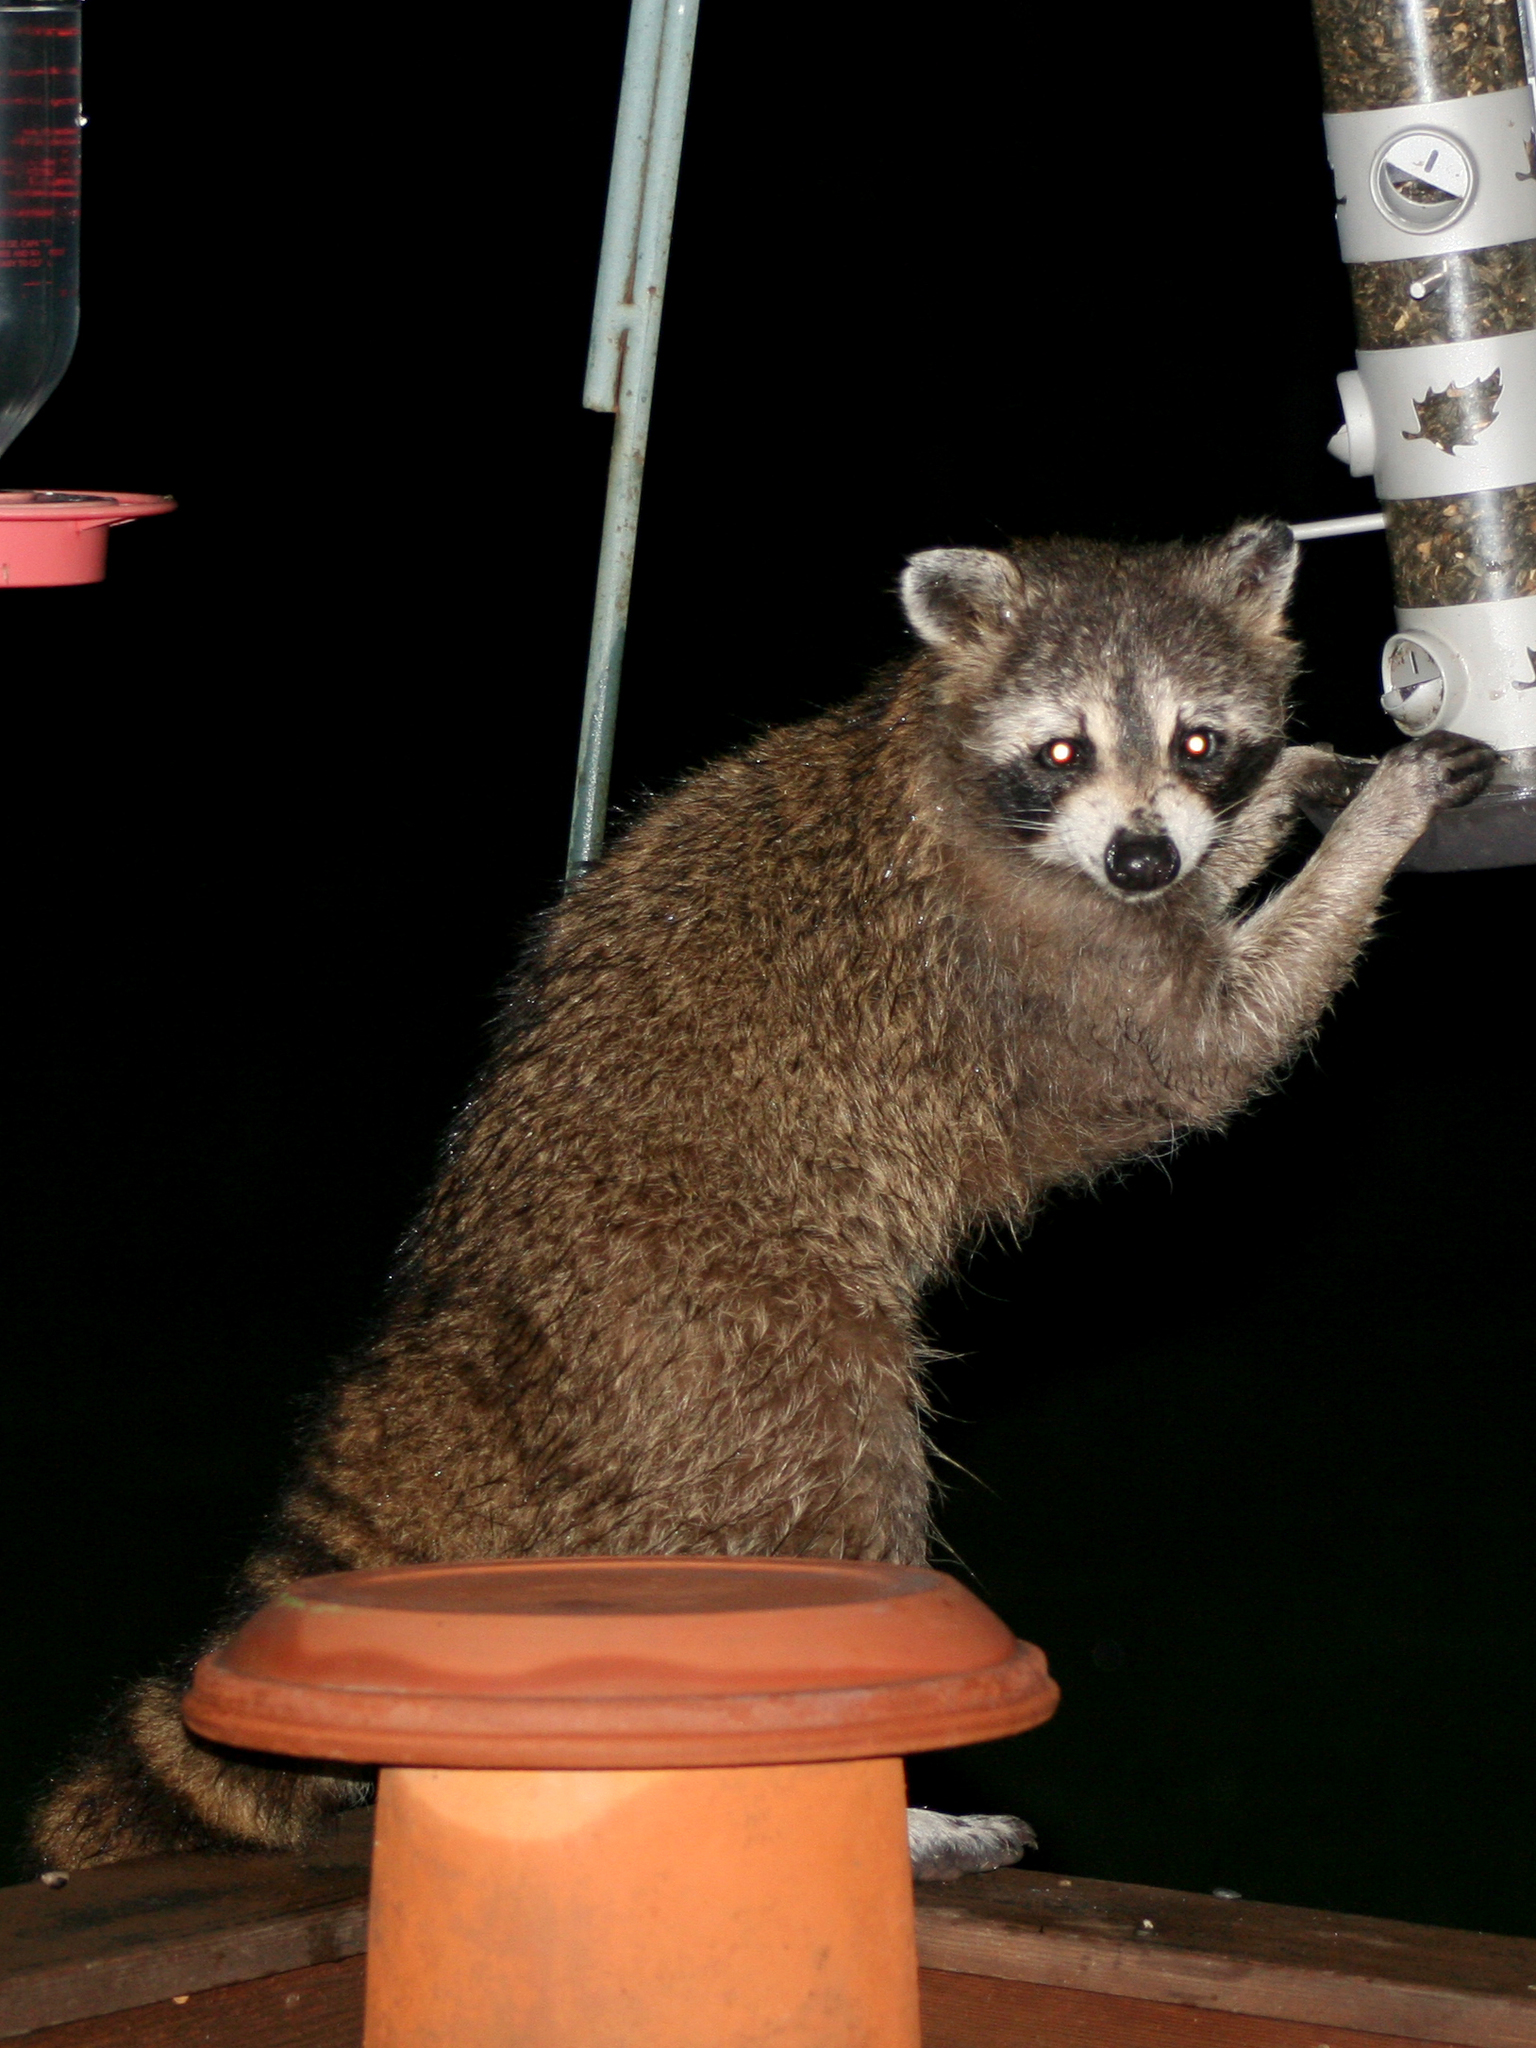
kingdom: Animalia
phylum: Chordata
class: Mammalia
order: Carnivora
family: Procyonidae
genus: Procyon
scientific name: Procyon lotor
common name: Raccoon
